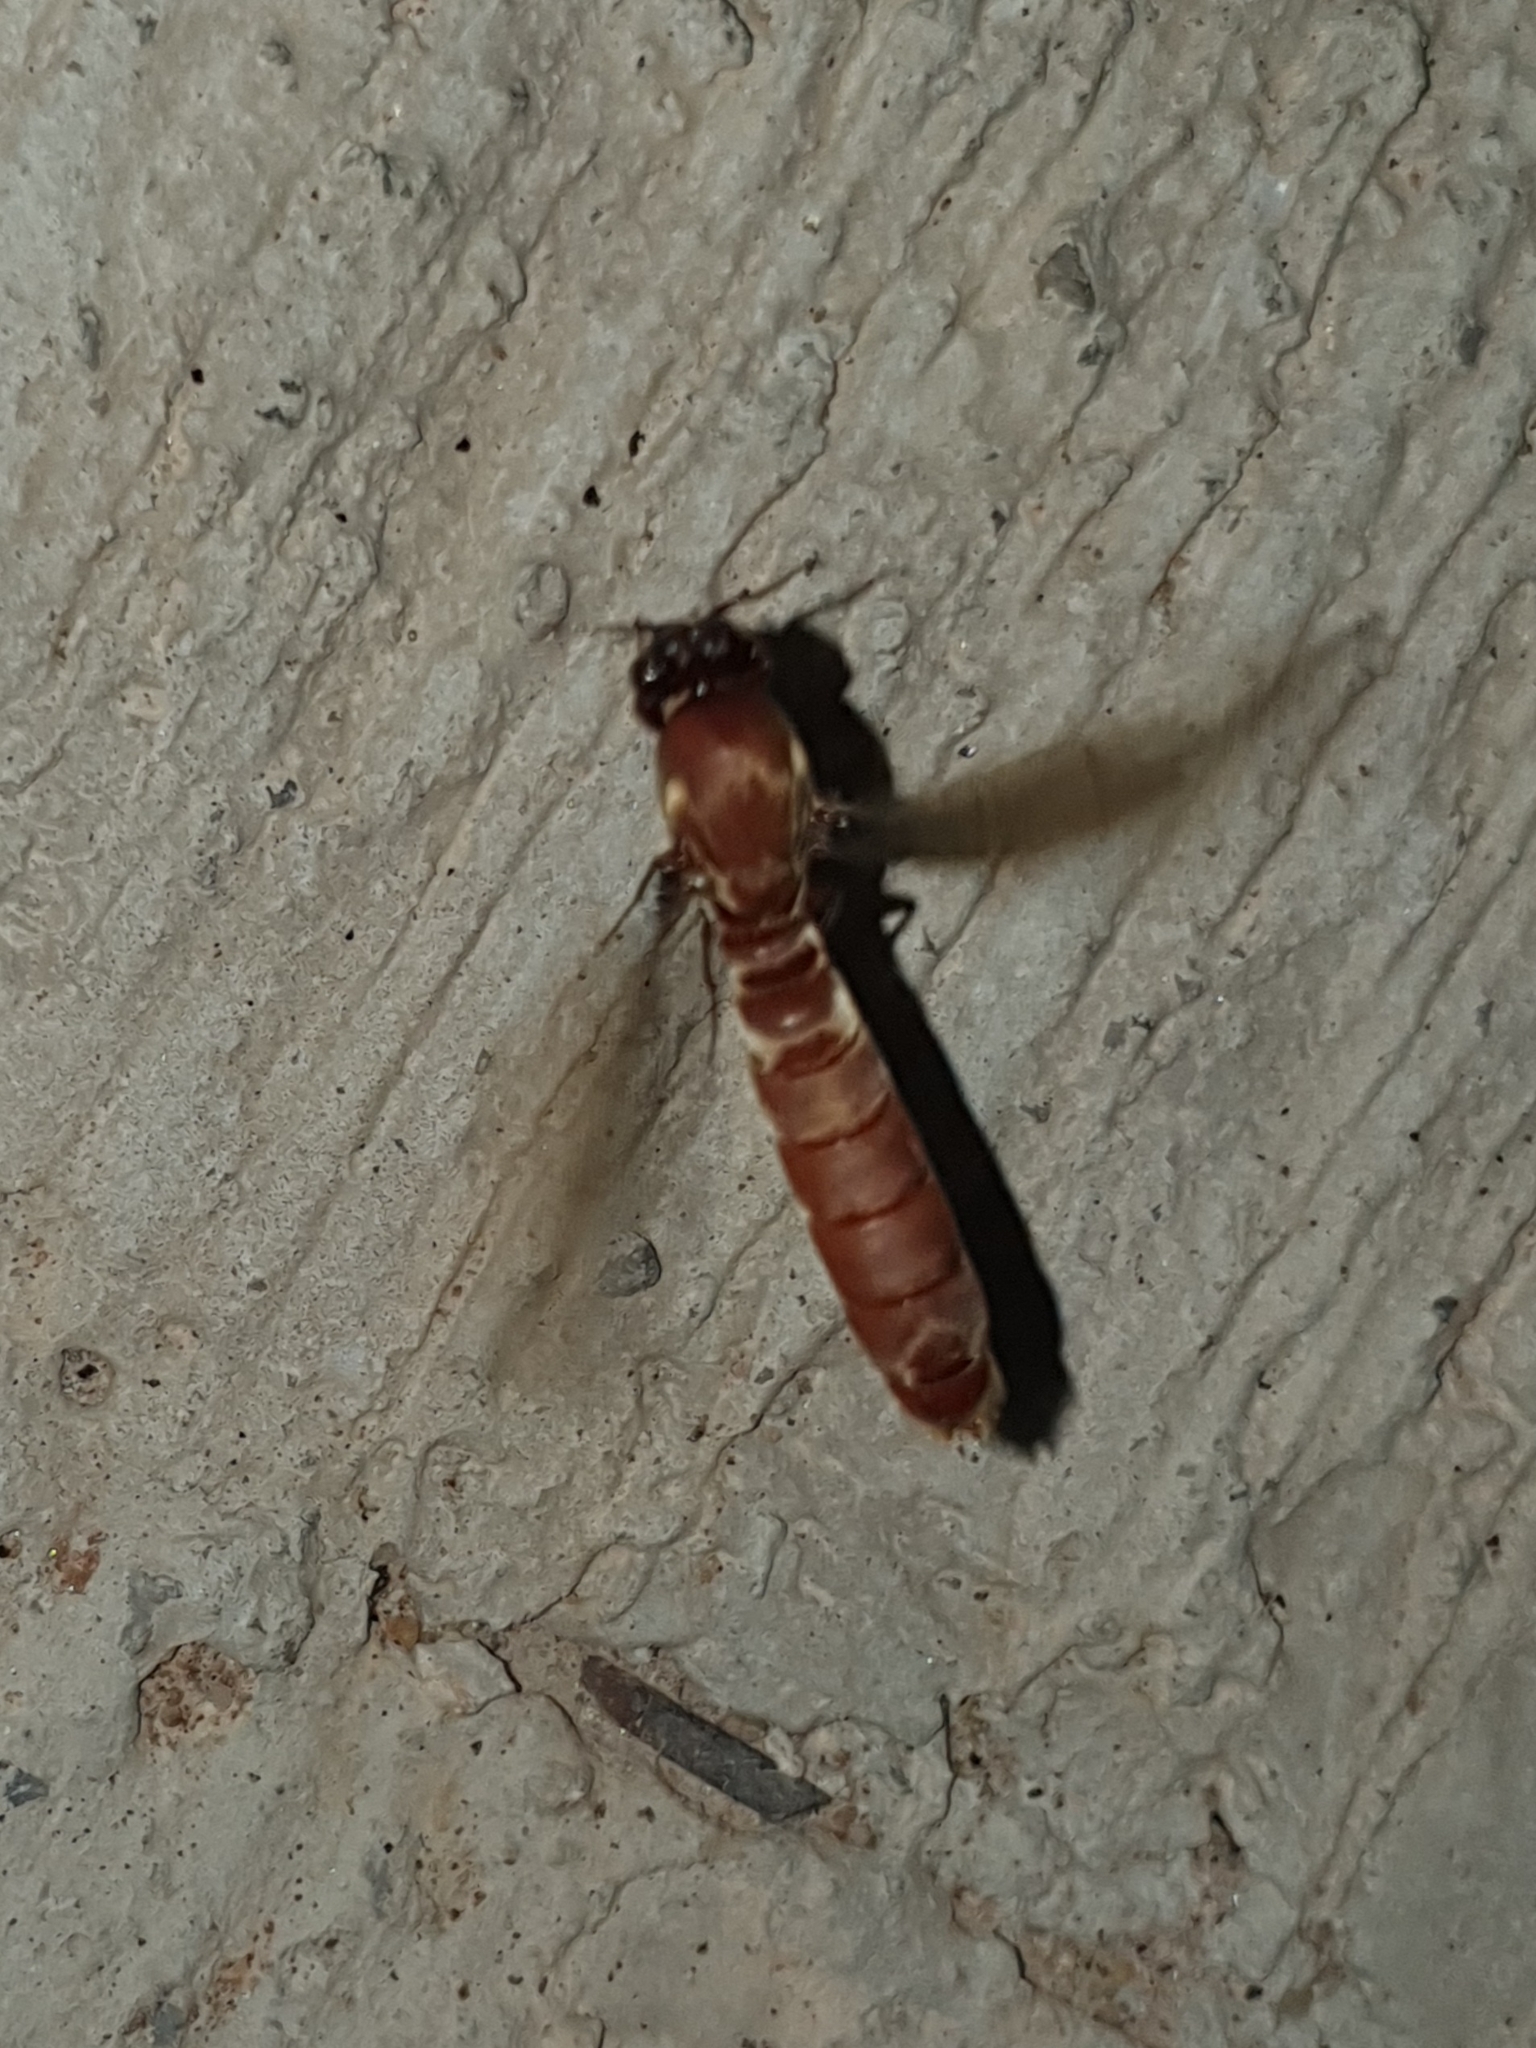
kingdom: Animalia
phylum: Arthropoda
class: Insecta
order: Hymenoptera
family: Formicidae
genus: Dorylus
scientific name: Dorylus fulvus
